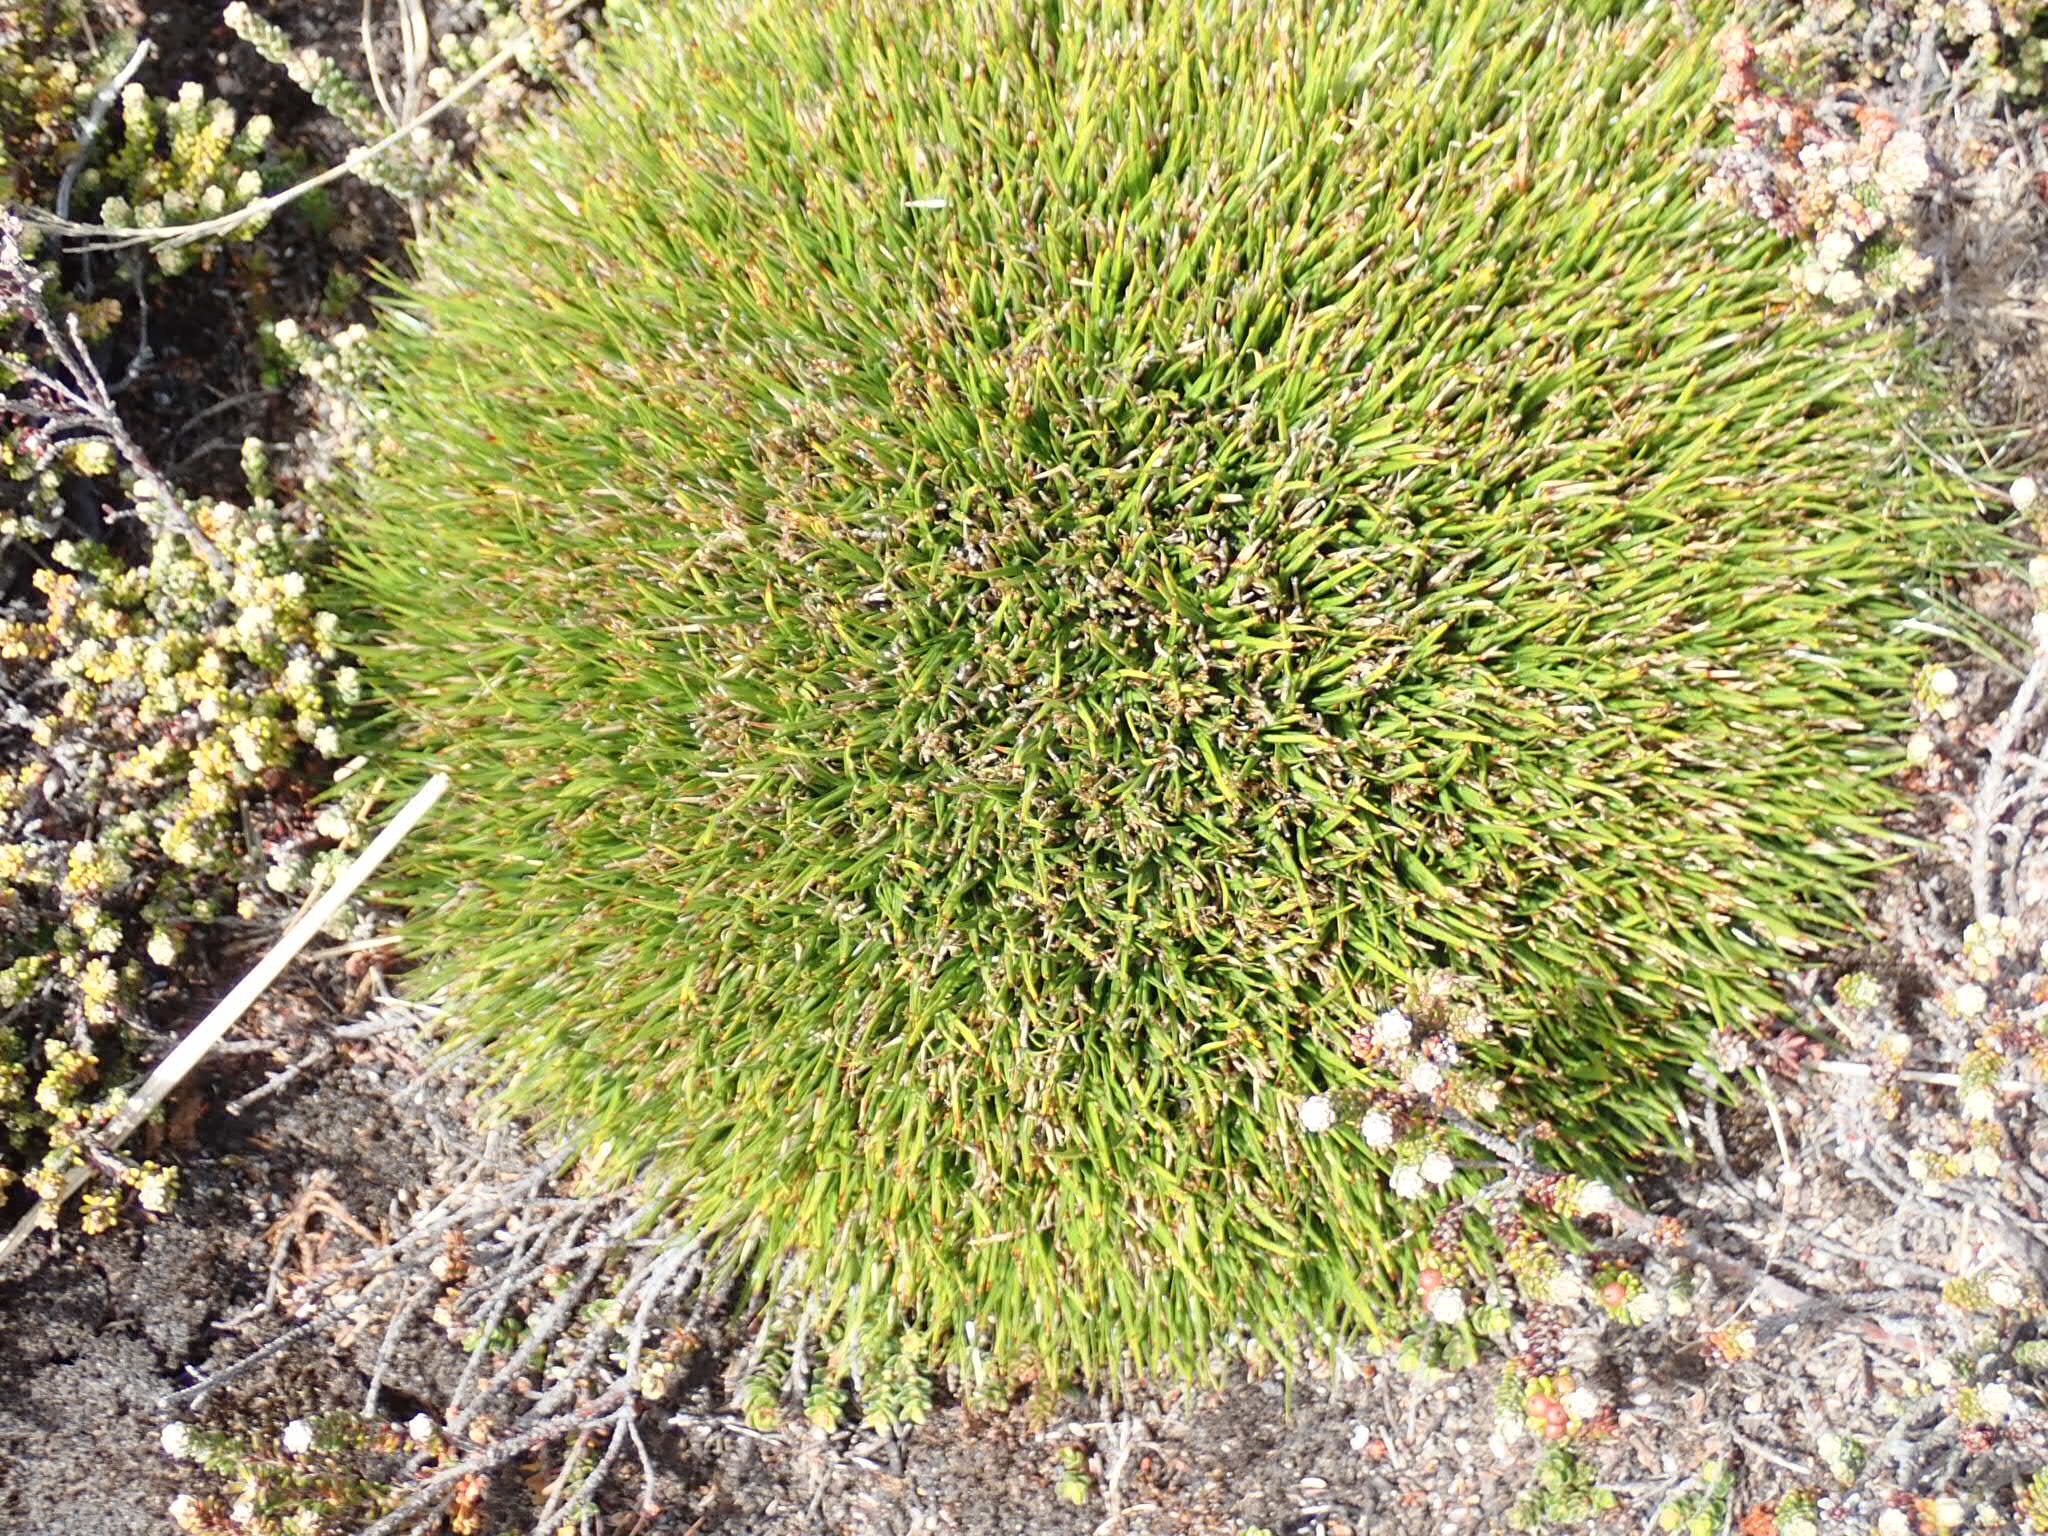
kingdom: Plantae
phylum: Tracheophyta
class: Liliopsida
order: Poales
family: Cyperaceae
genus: Oreobolus
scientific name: Oreobolus obtusangulus
